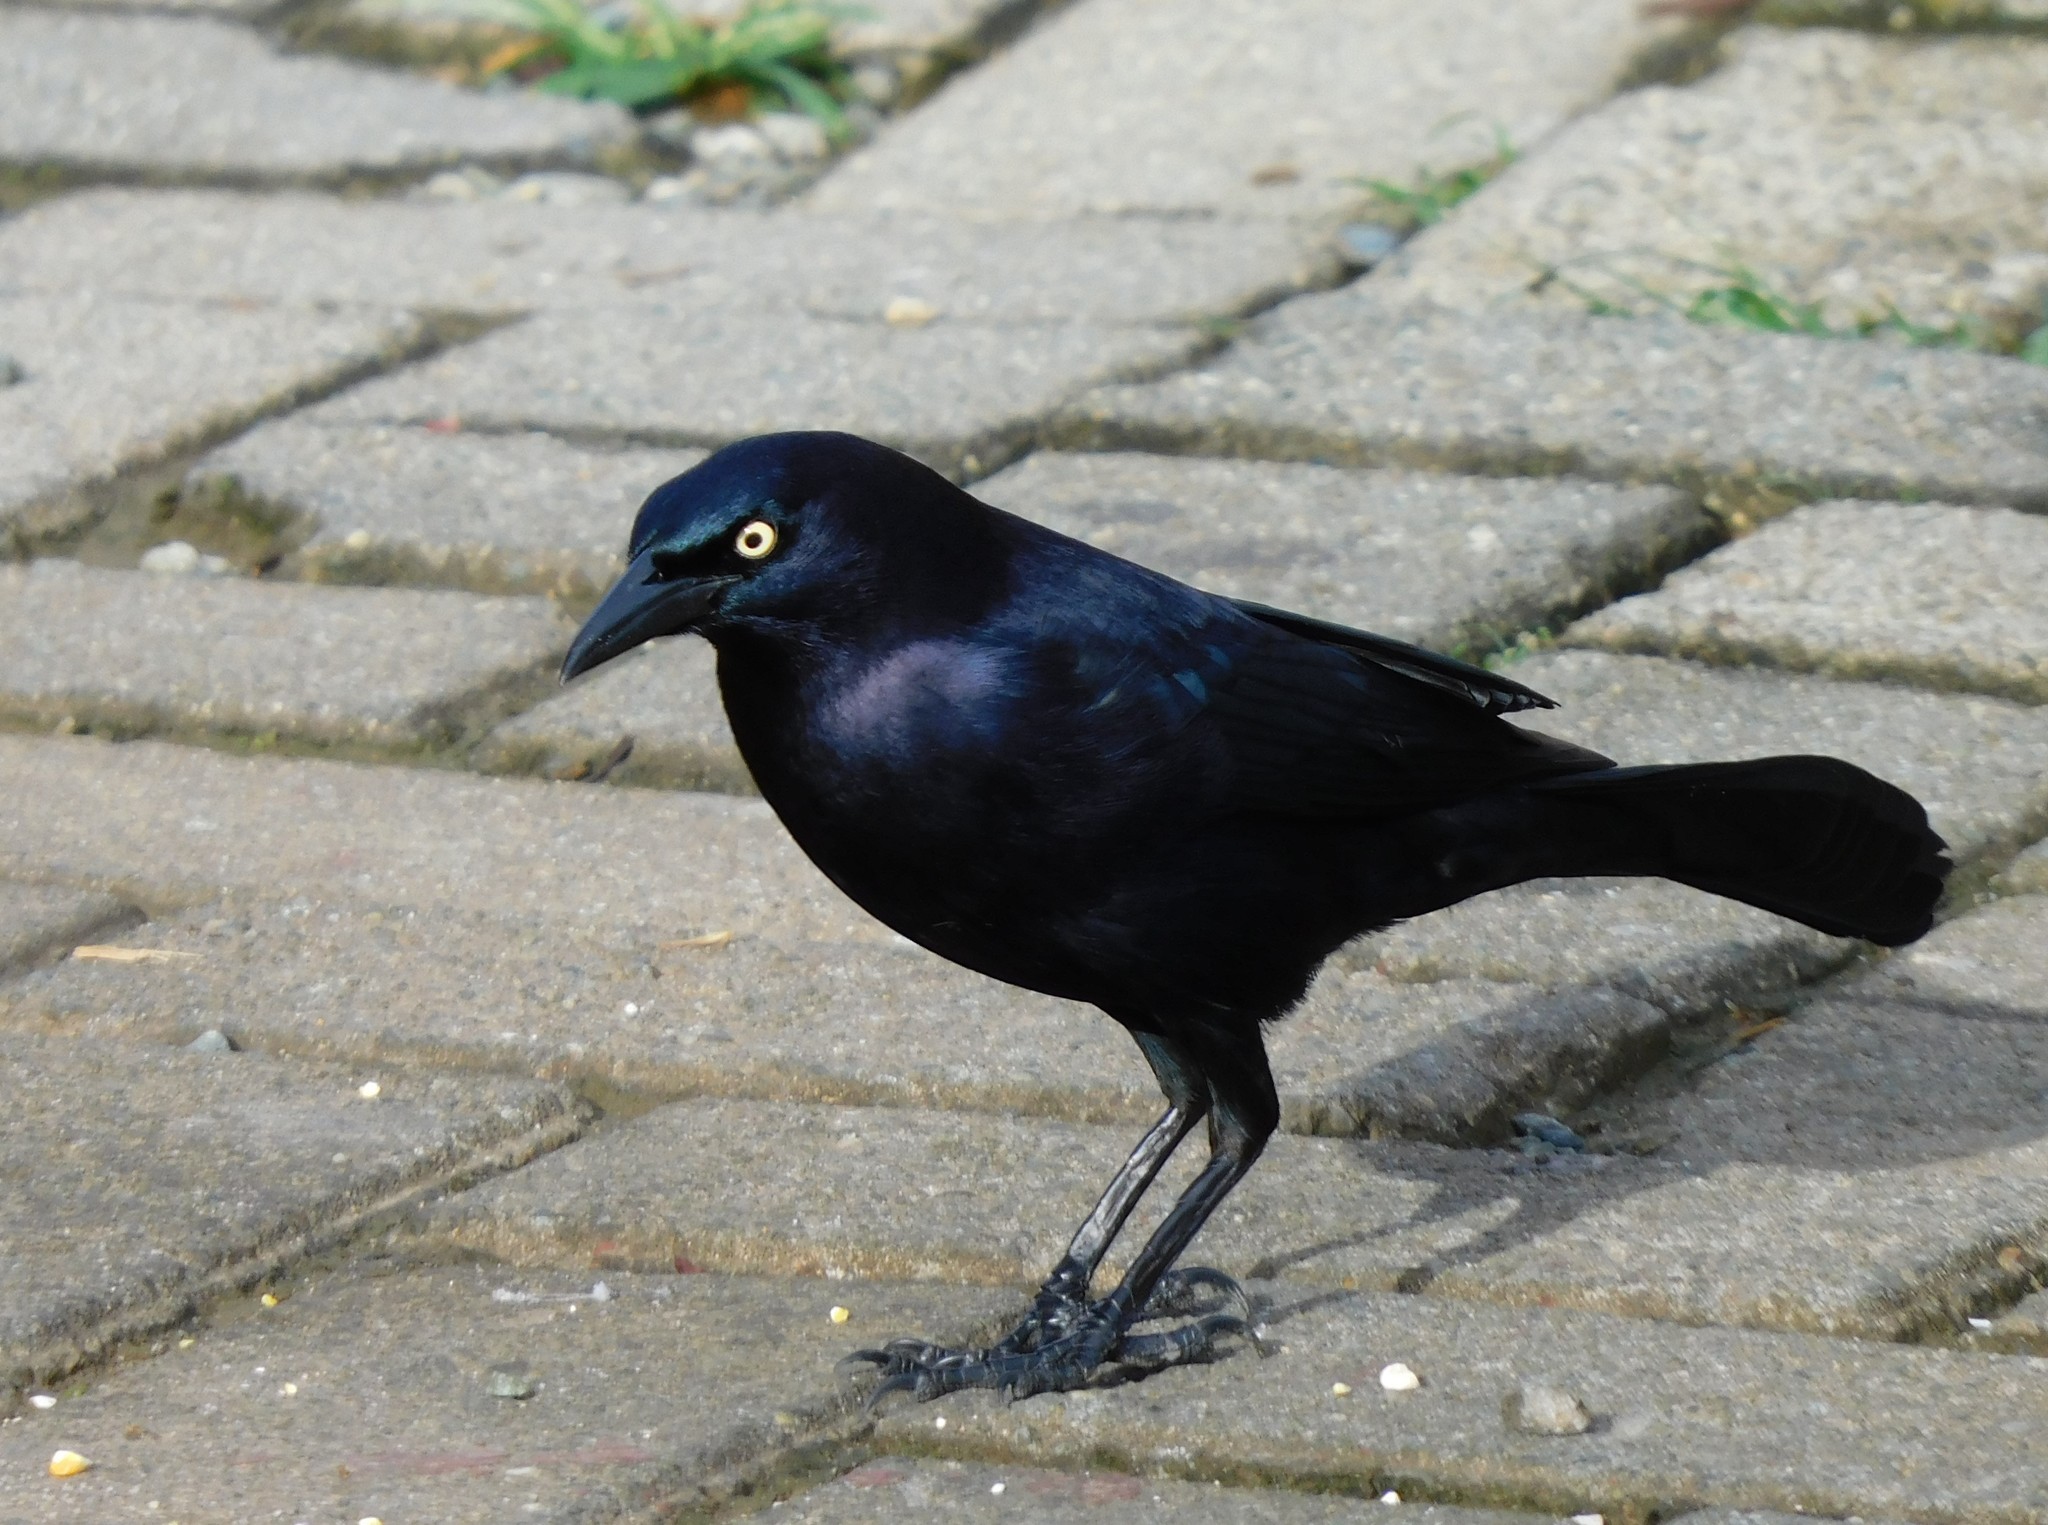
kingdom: Animalia
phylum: Chordata
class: Aves
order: Passeriformes
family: Icteridae
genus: Quiscalus
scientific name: Quiscalus lugubris
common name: Carib grackle
